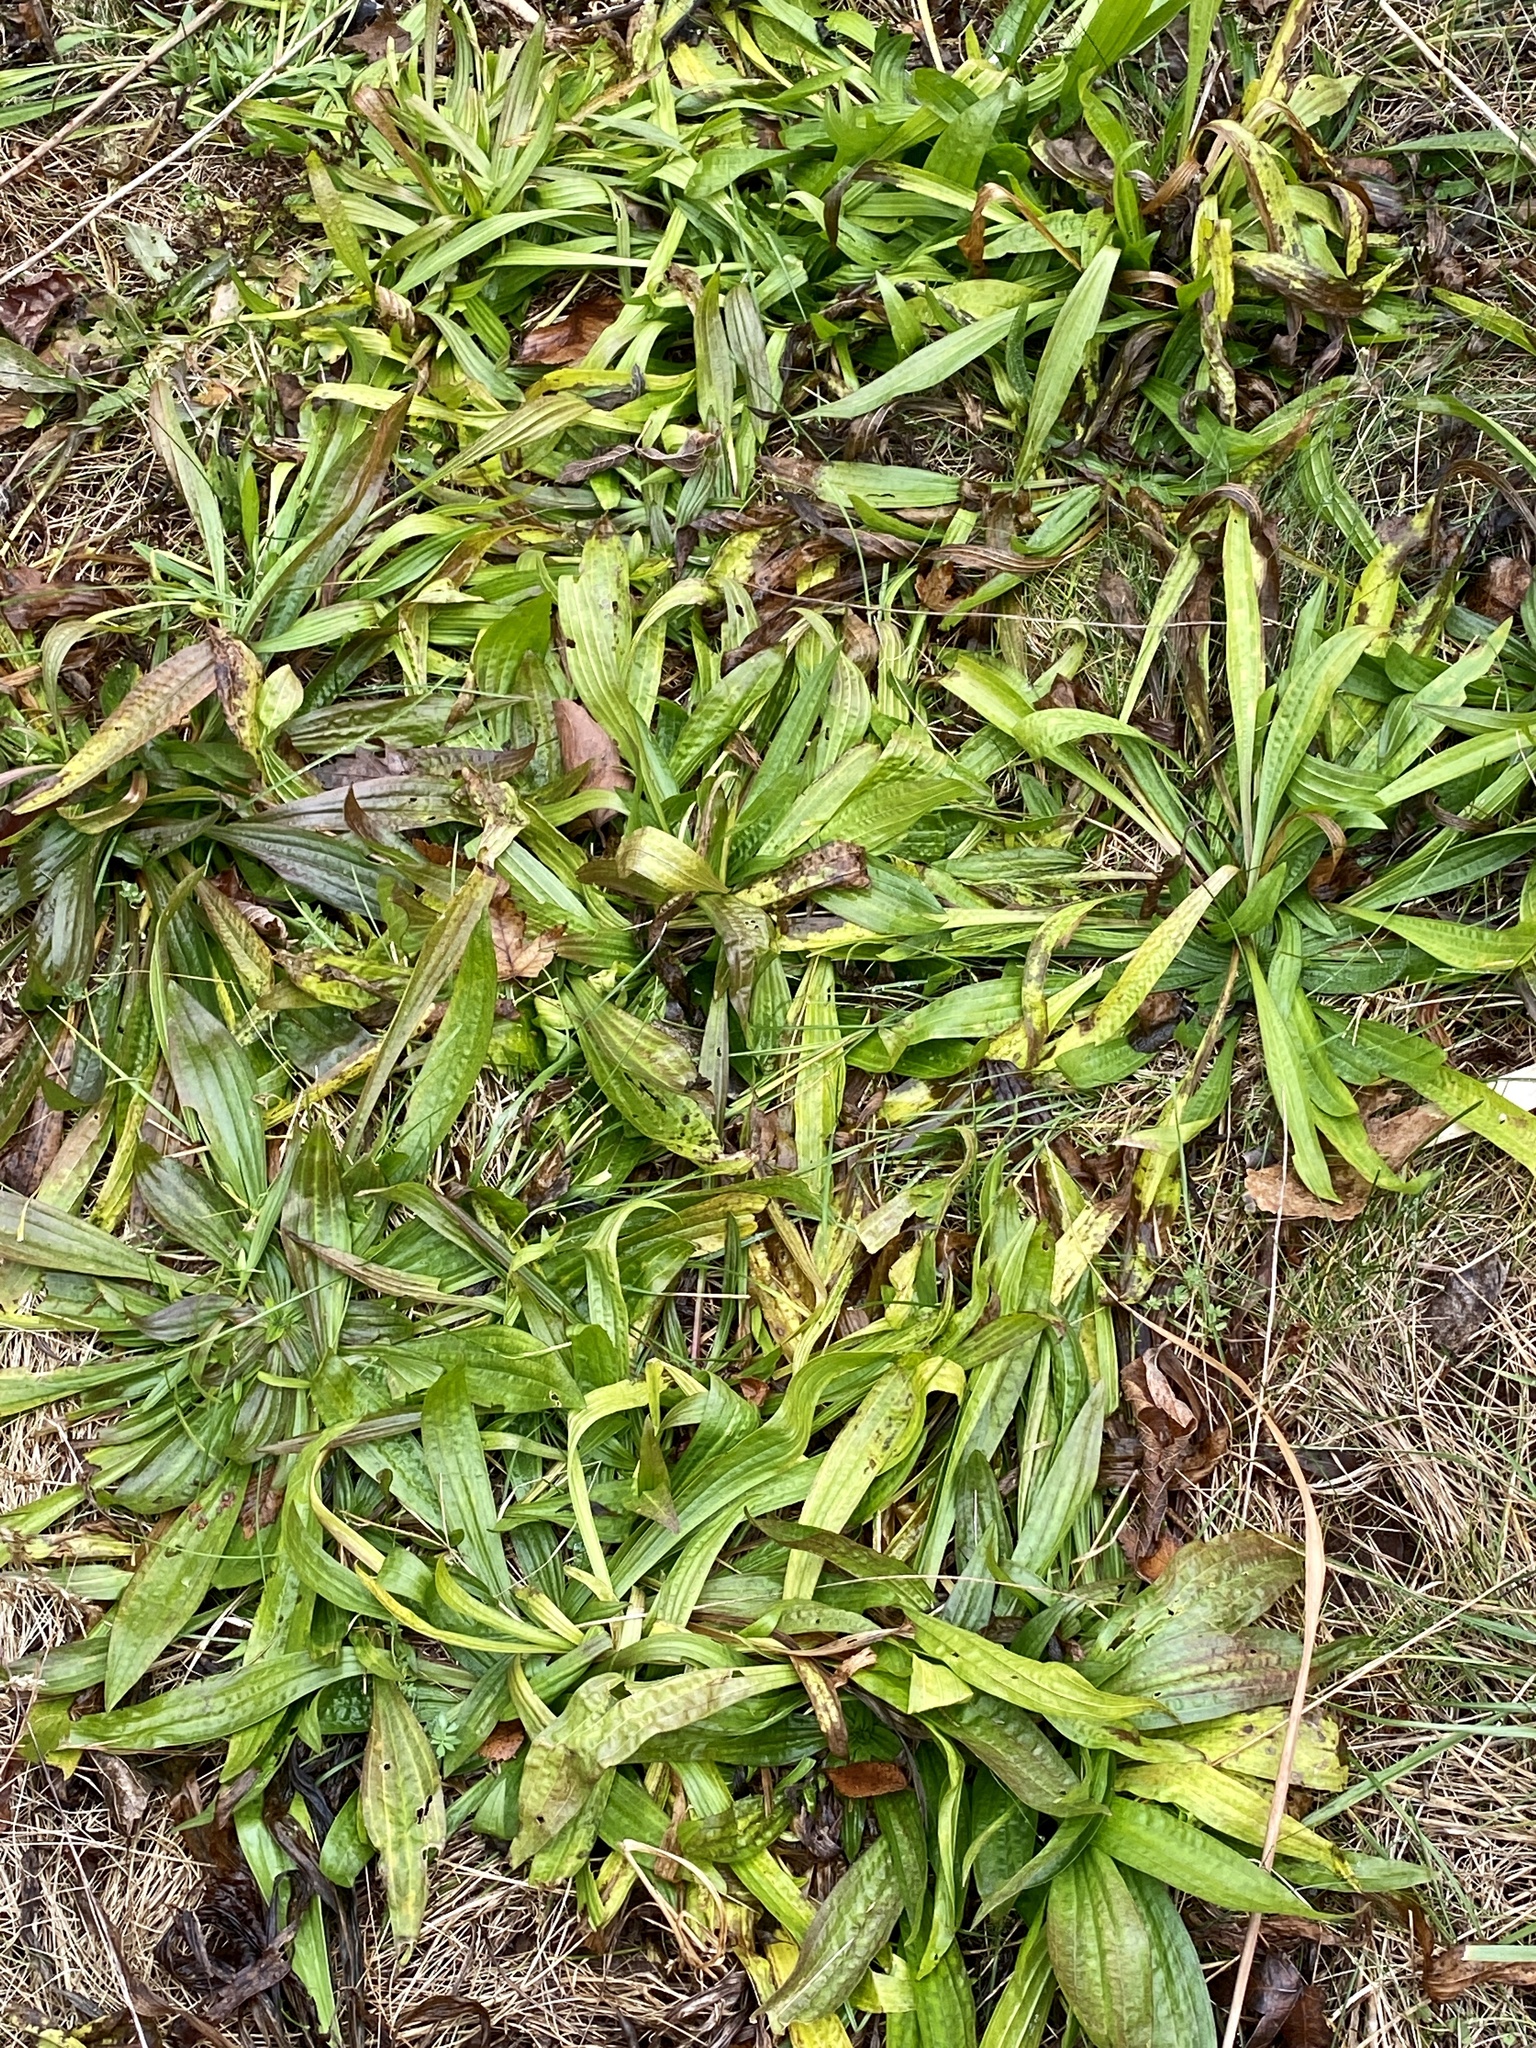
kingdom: Plantae
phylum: Tracheophyta
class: Magnoliopsida
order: Lamiales
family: Plantaginaceae
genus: Plantago
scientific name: Plantago lanceolata
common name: Ribwort plantain
